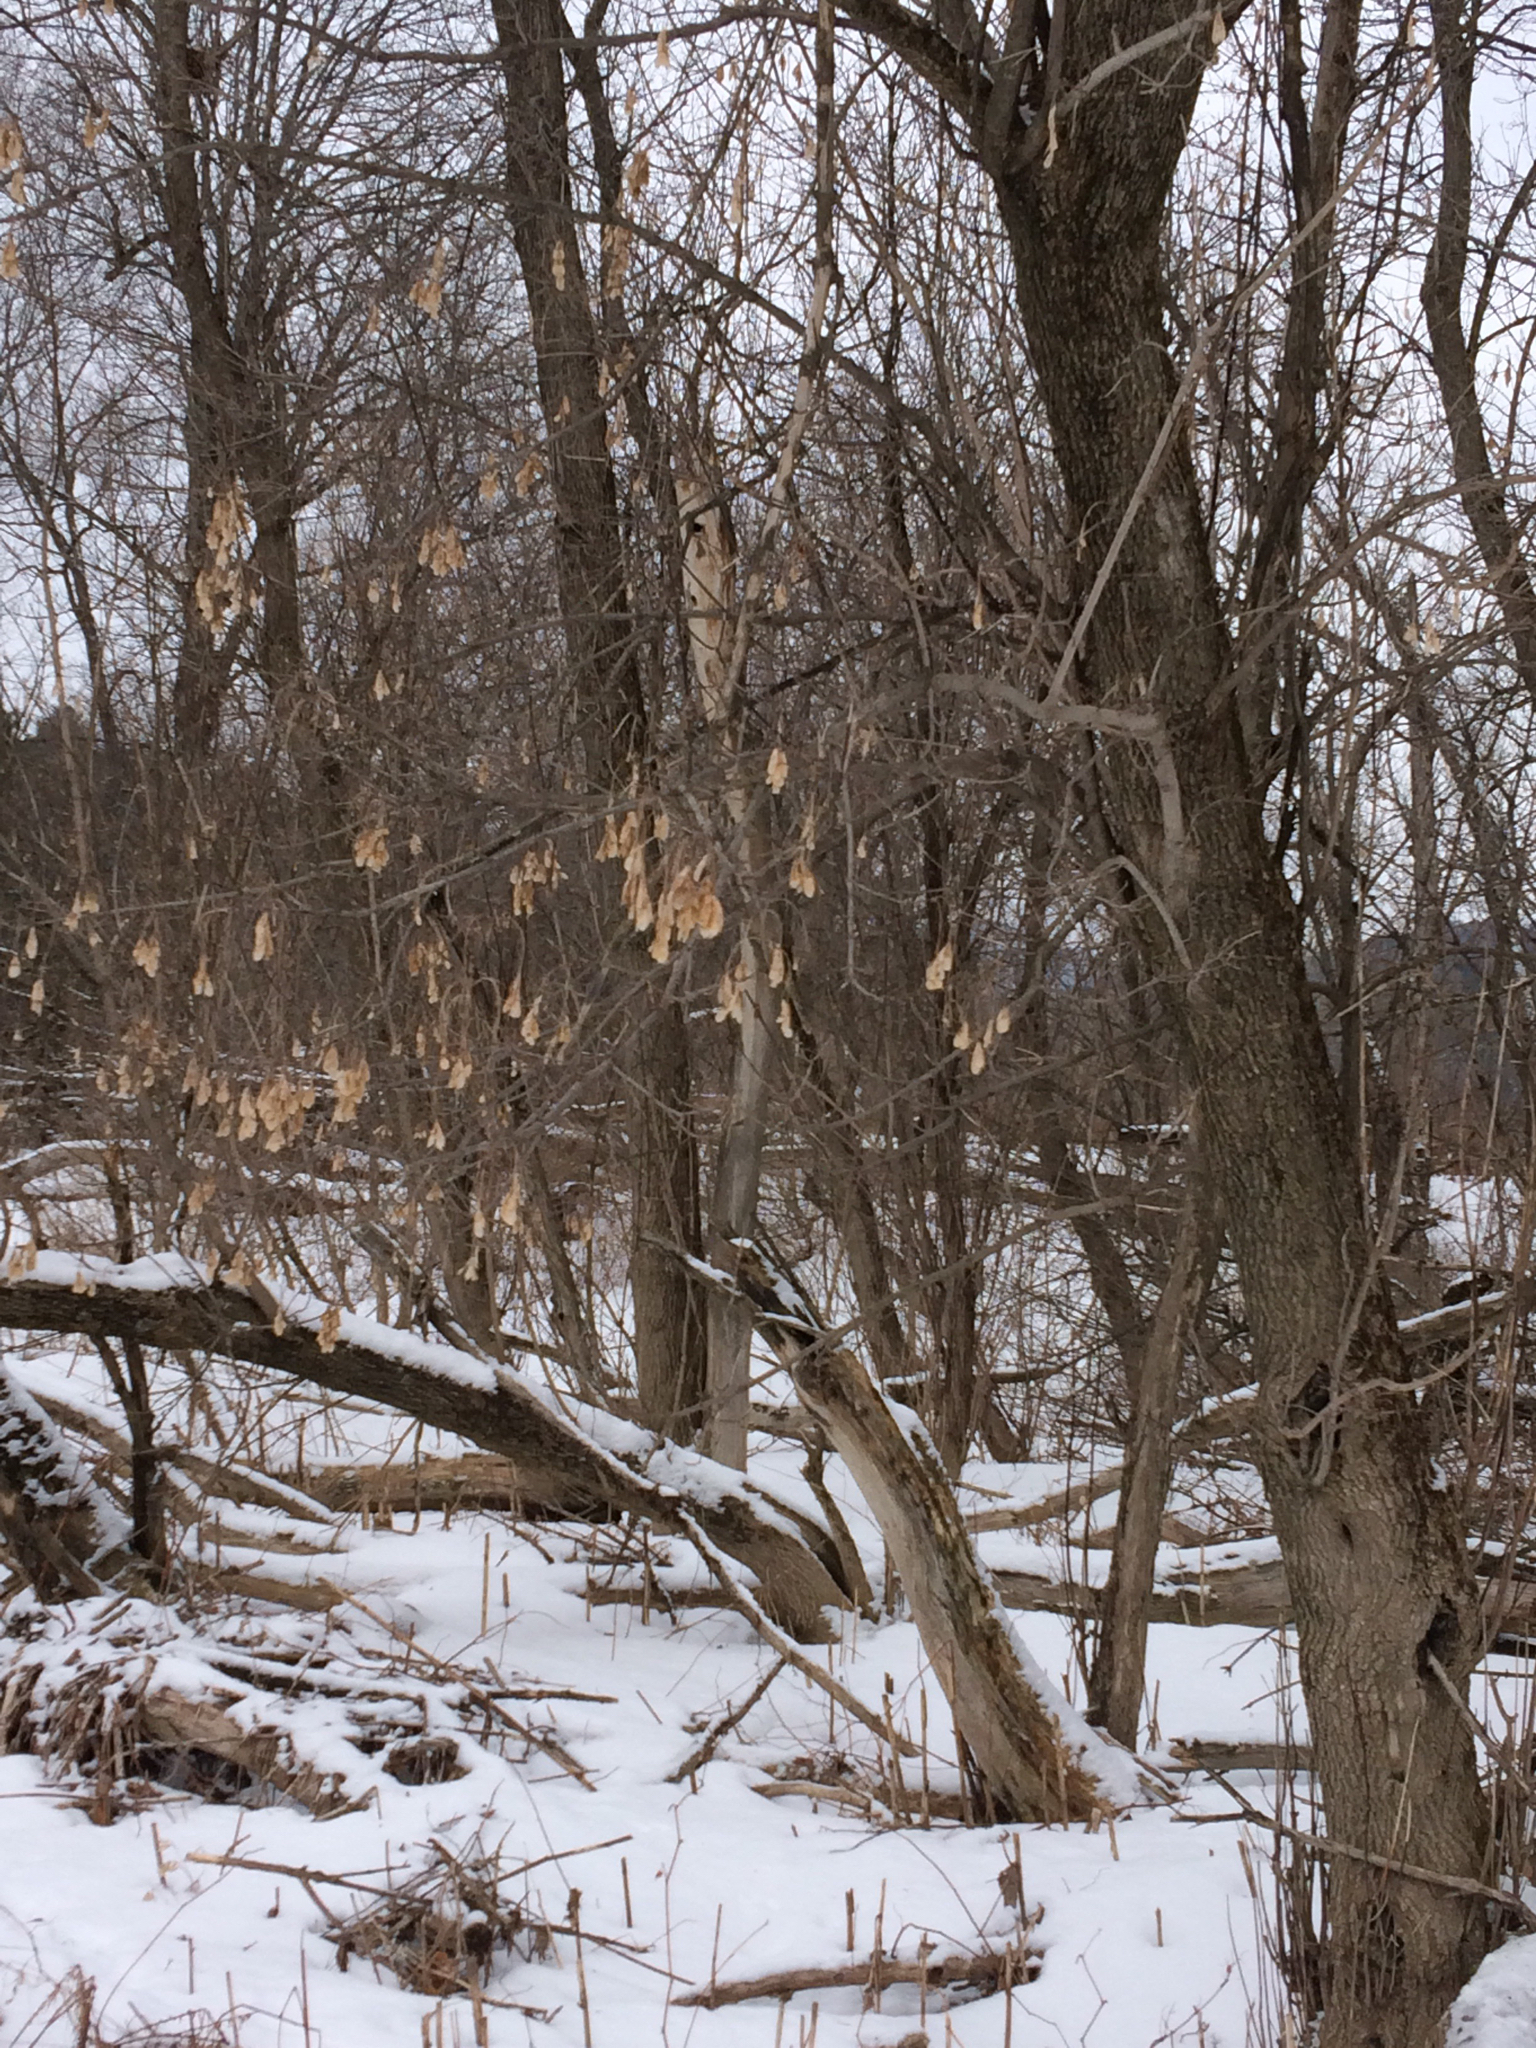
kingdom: Plantae
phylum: Tracheophyta
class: Magnoliopsida
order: Sapindales
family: Sapindaceae
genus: Acer
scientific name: Acer negundo
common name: Ashleaf maple
